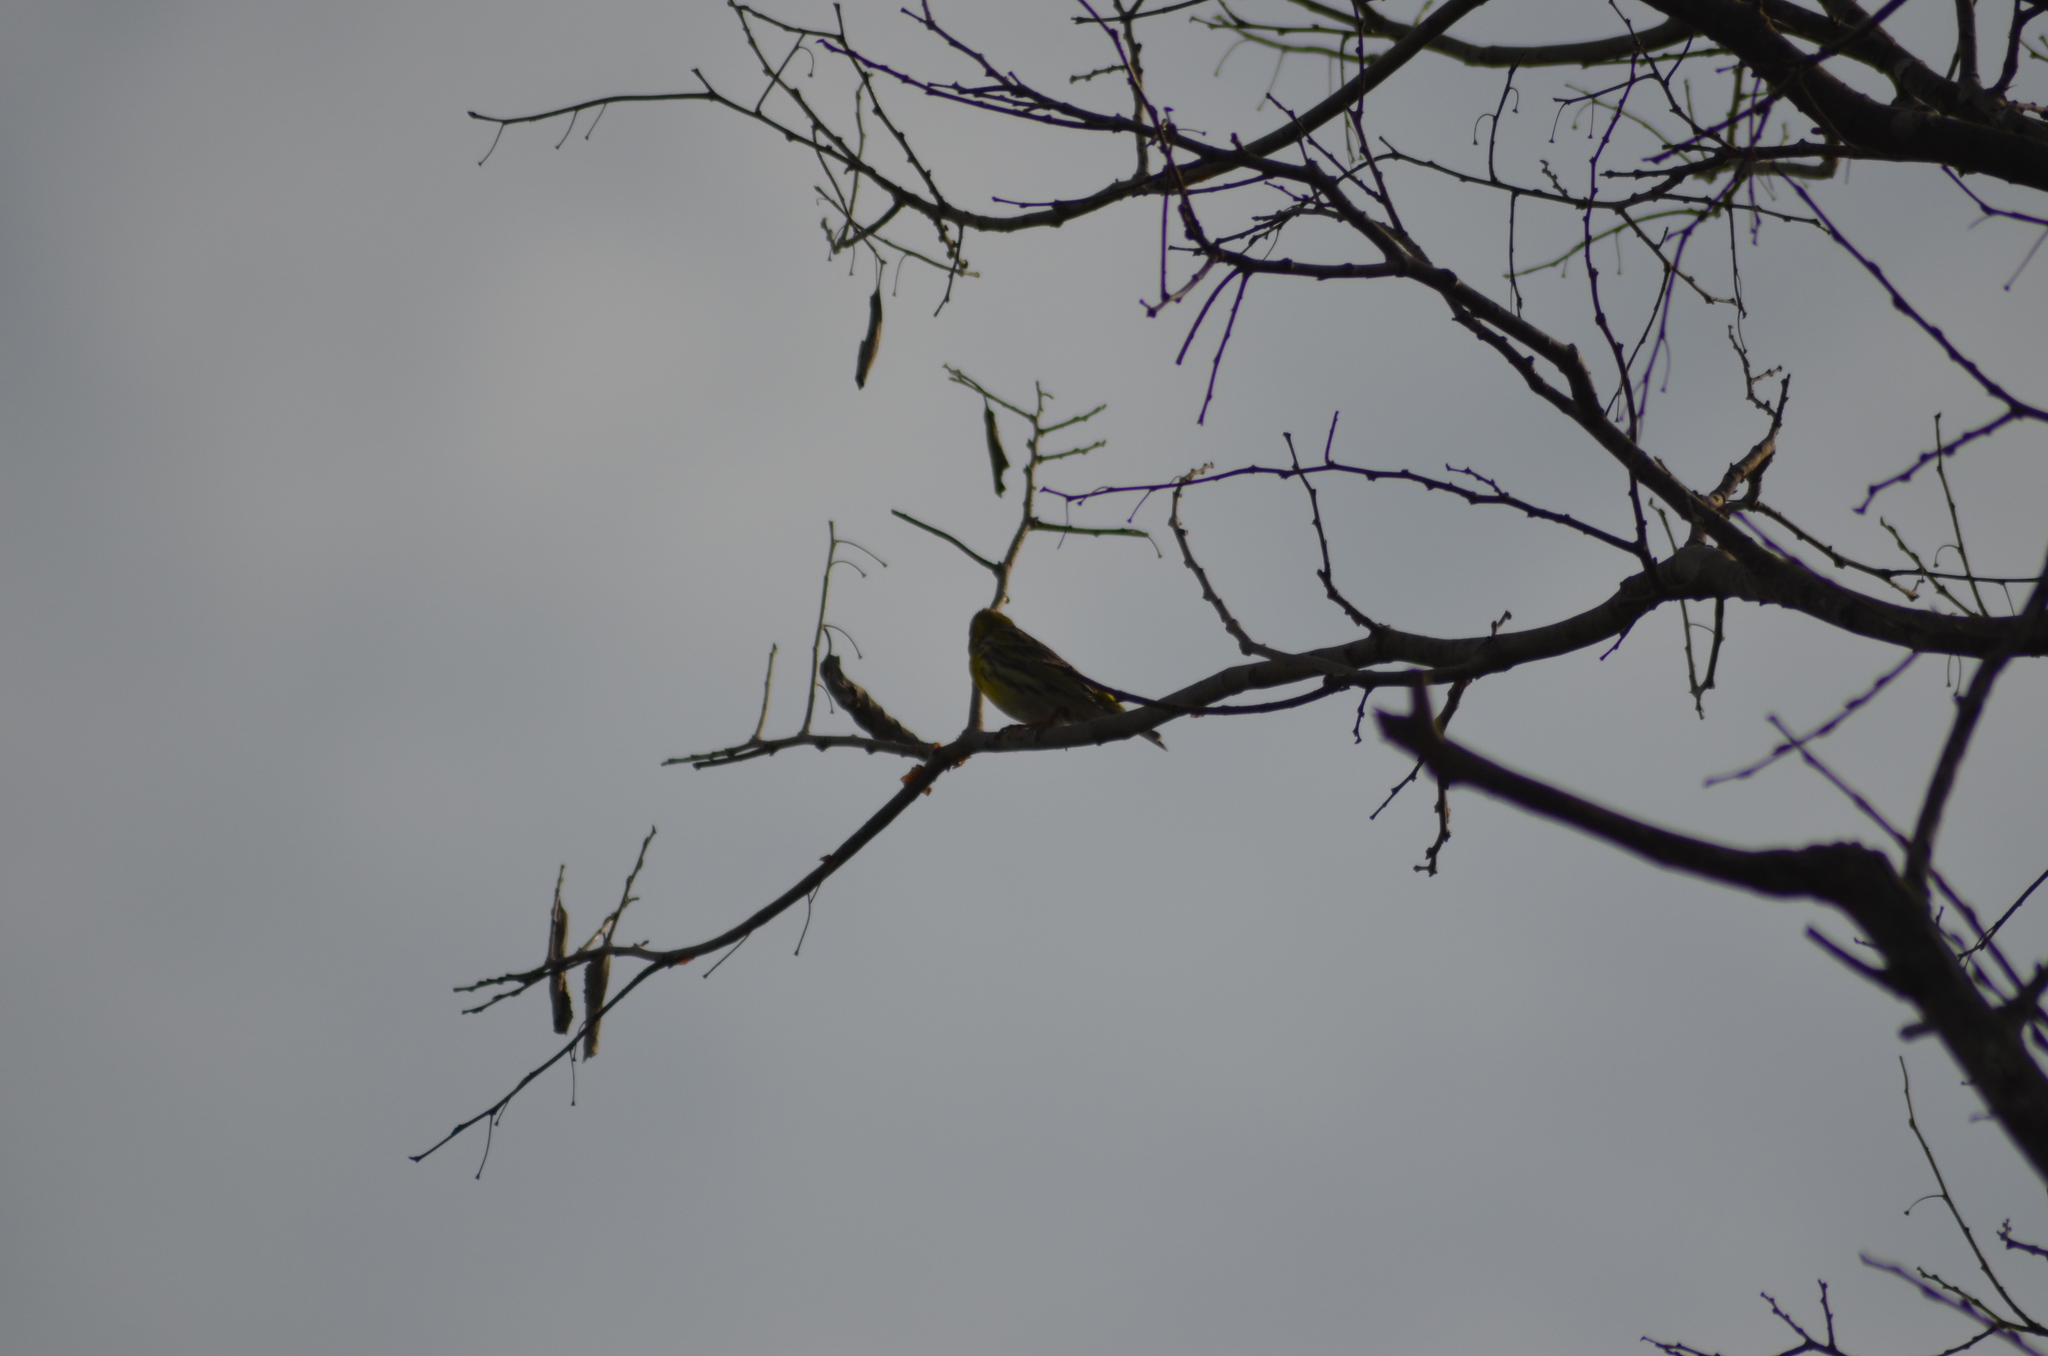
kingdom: Animalia
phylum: Chordata
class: Aves
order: Passeriformes
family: Fringillidae
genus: Serinus
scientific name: Serinus serinus
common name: European serin
